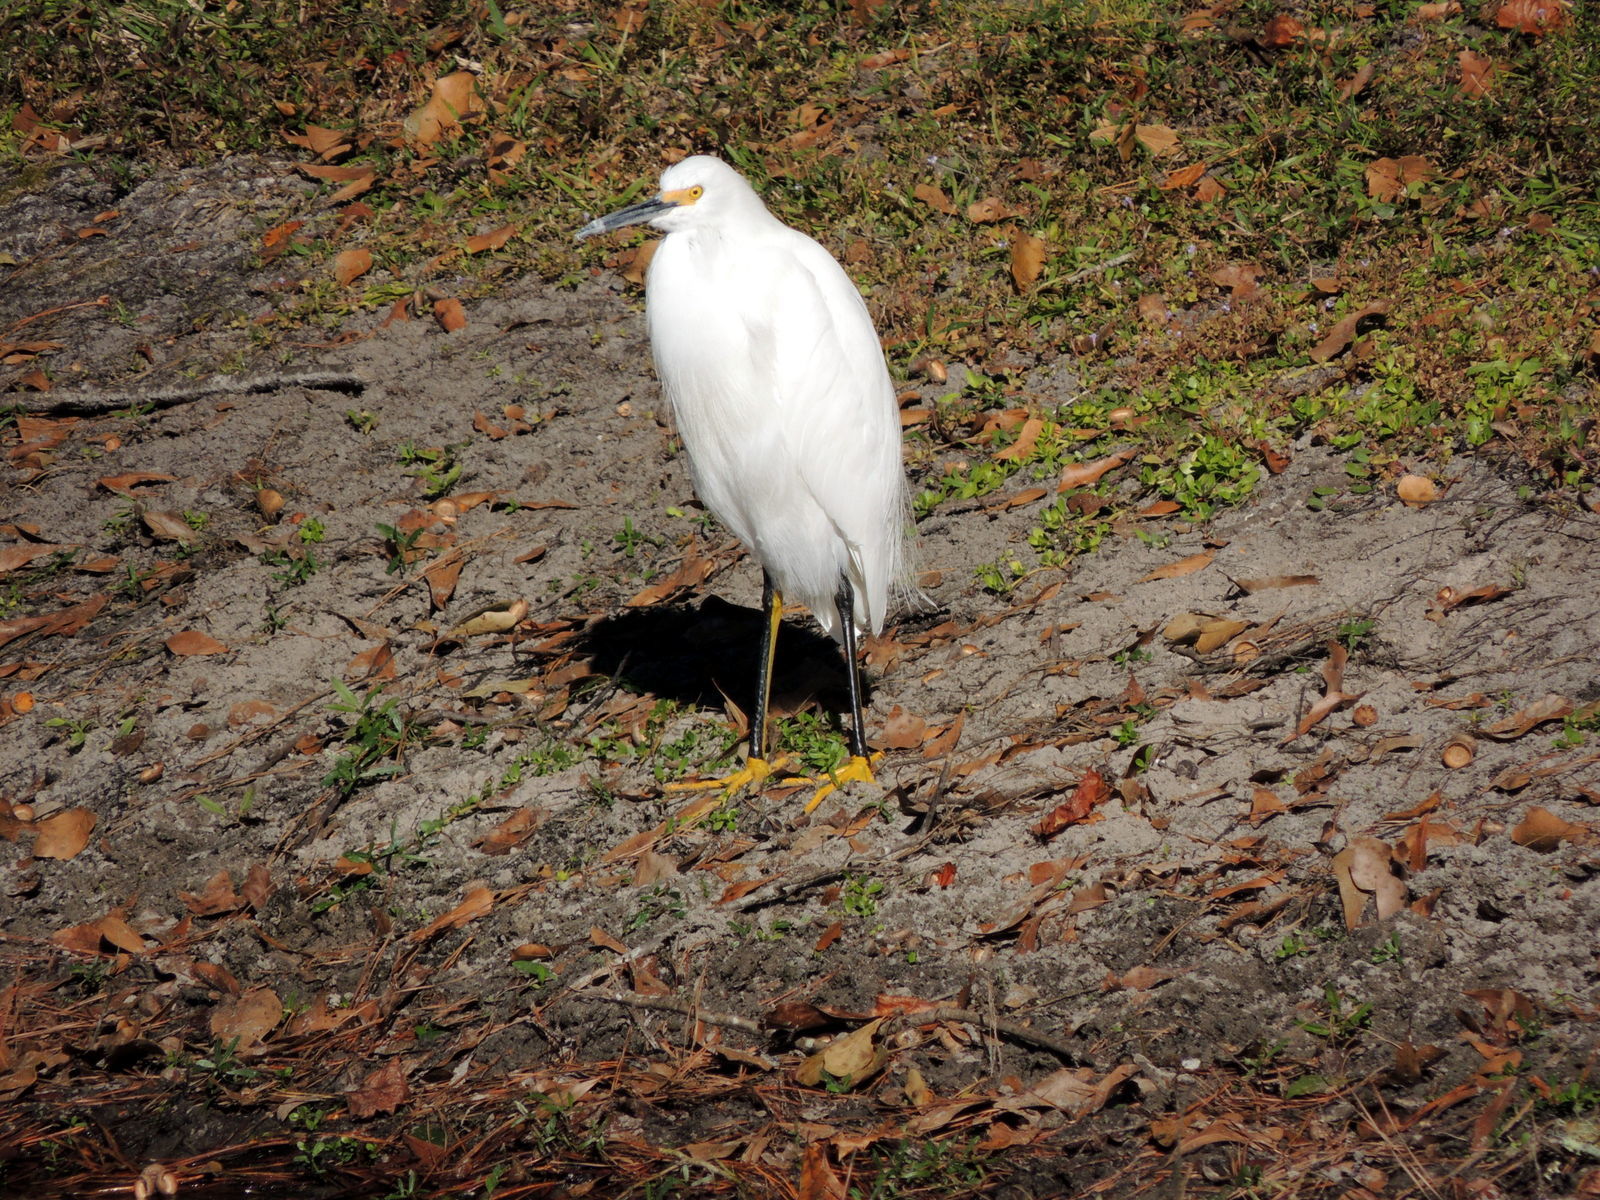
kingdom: Animalia
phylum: Chordata
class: Aves
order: Pelecaniformes
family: Ardeidae
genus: Egretta
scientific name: Egretta thula
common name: Snowy egret
